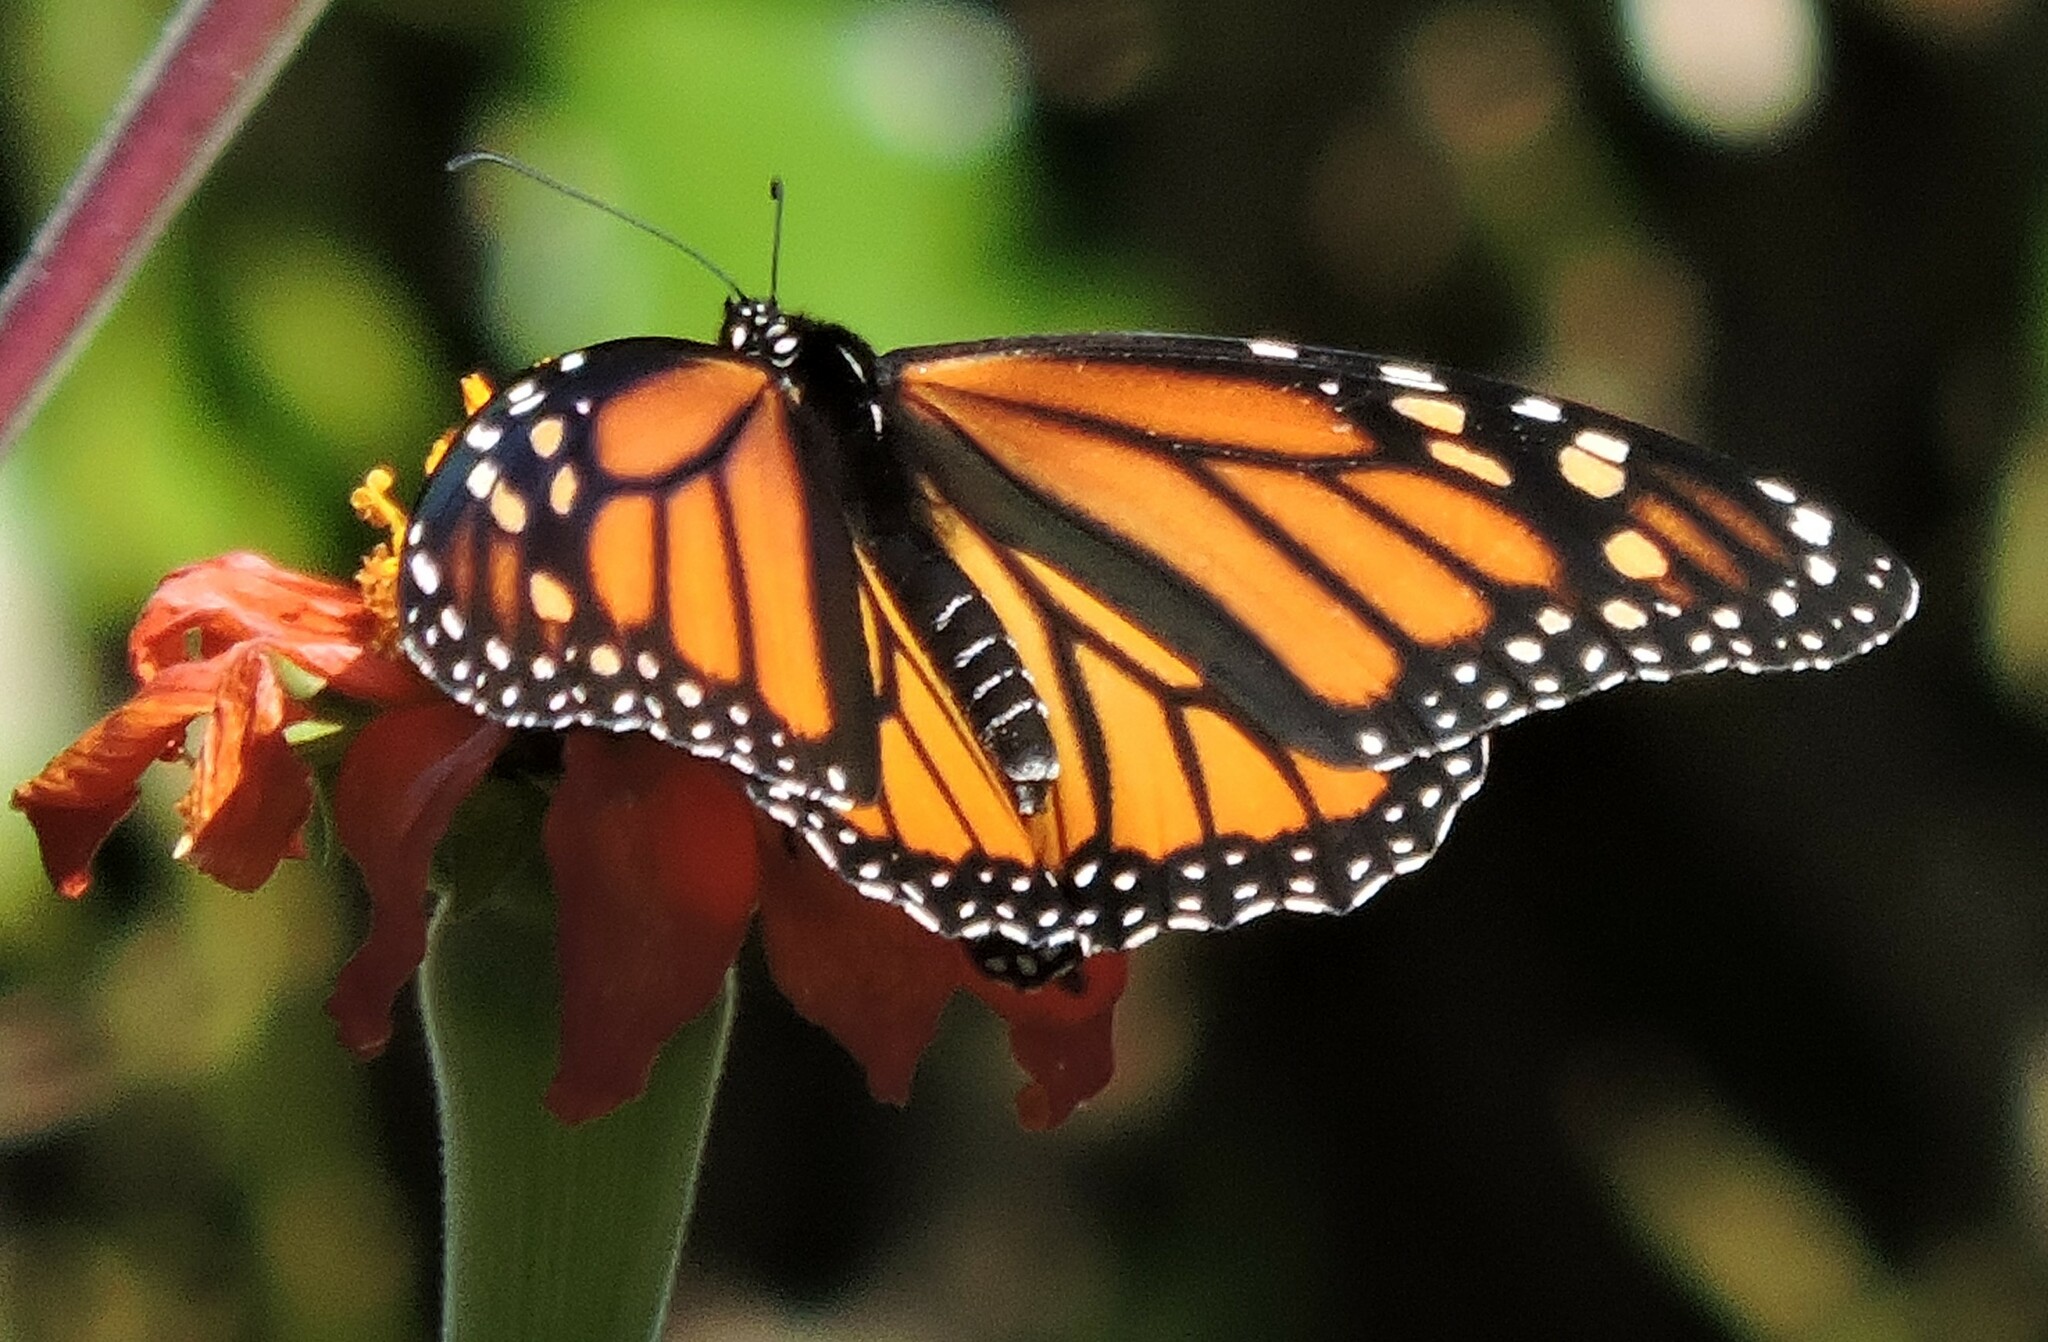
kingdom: Animalia
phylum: Arthropoda
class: Insecta
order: Lepidoptera
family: Nymphalidae
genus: Danaus
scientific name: Danaus plexippus
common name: Monarch
